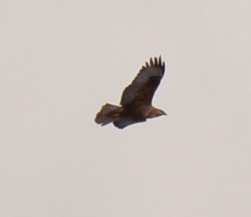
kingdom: Animalia
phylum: Chordata
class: Aves
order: Accipitriformes
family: Accipitridae
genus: Buteo
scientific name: Buteo rufinus
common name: Long-legged buzzard
